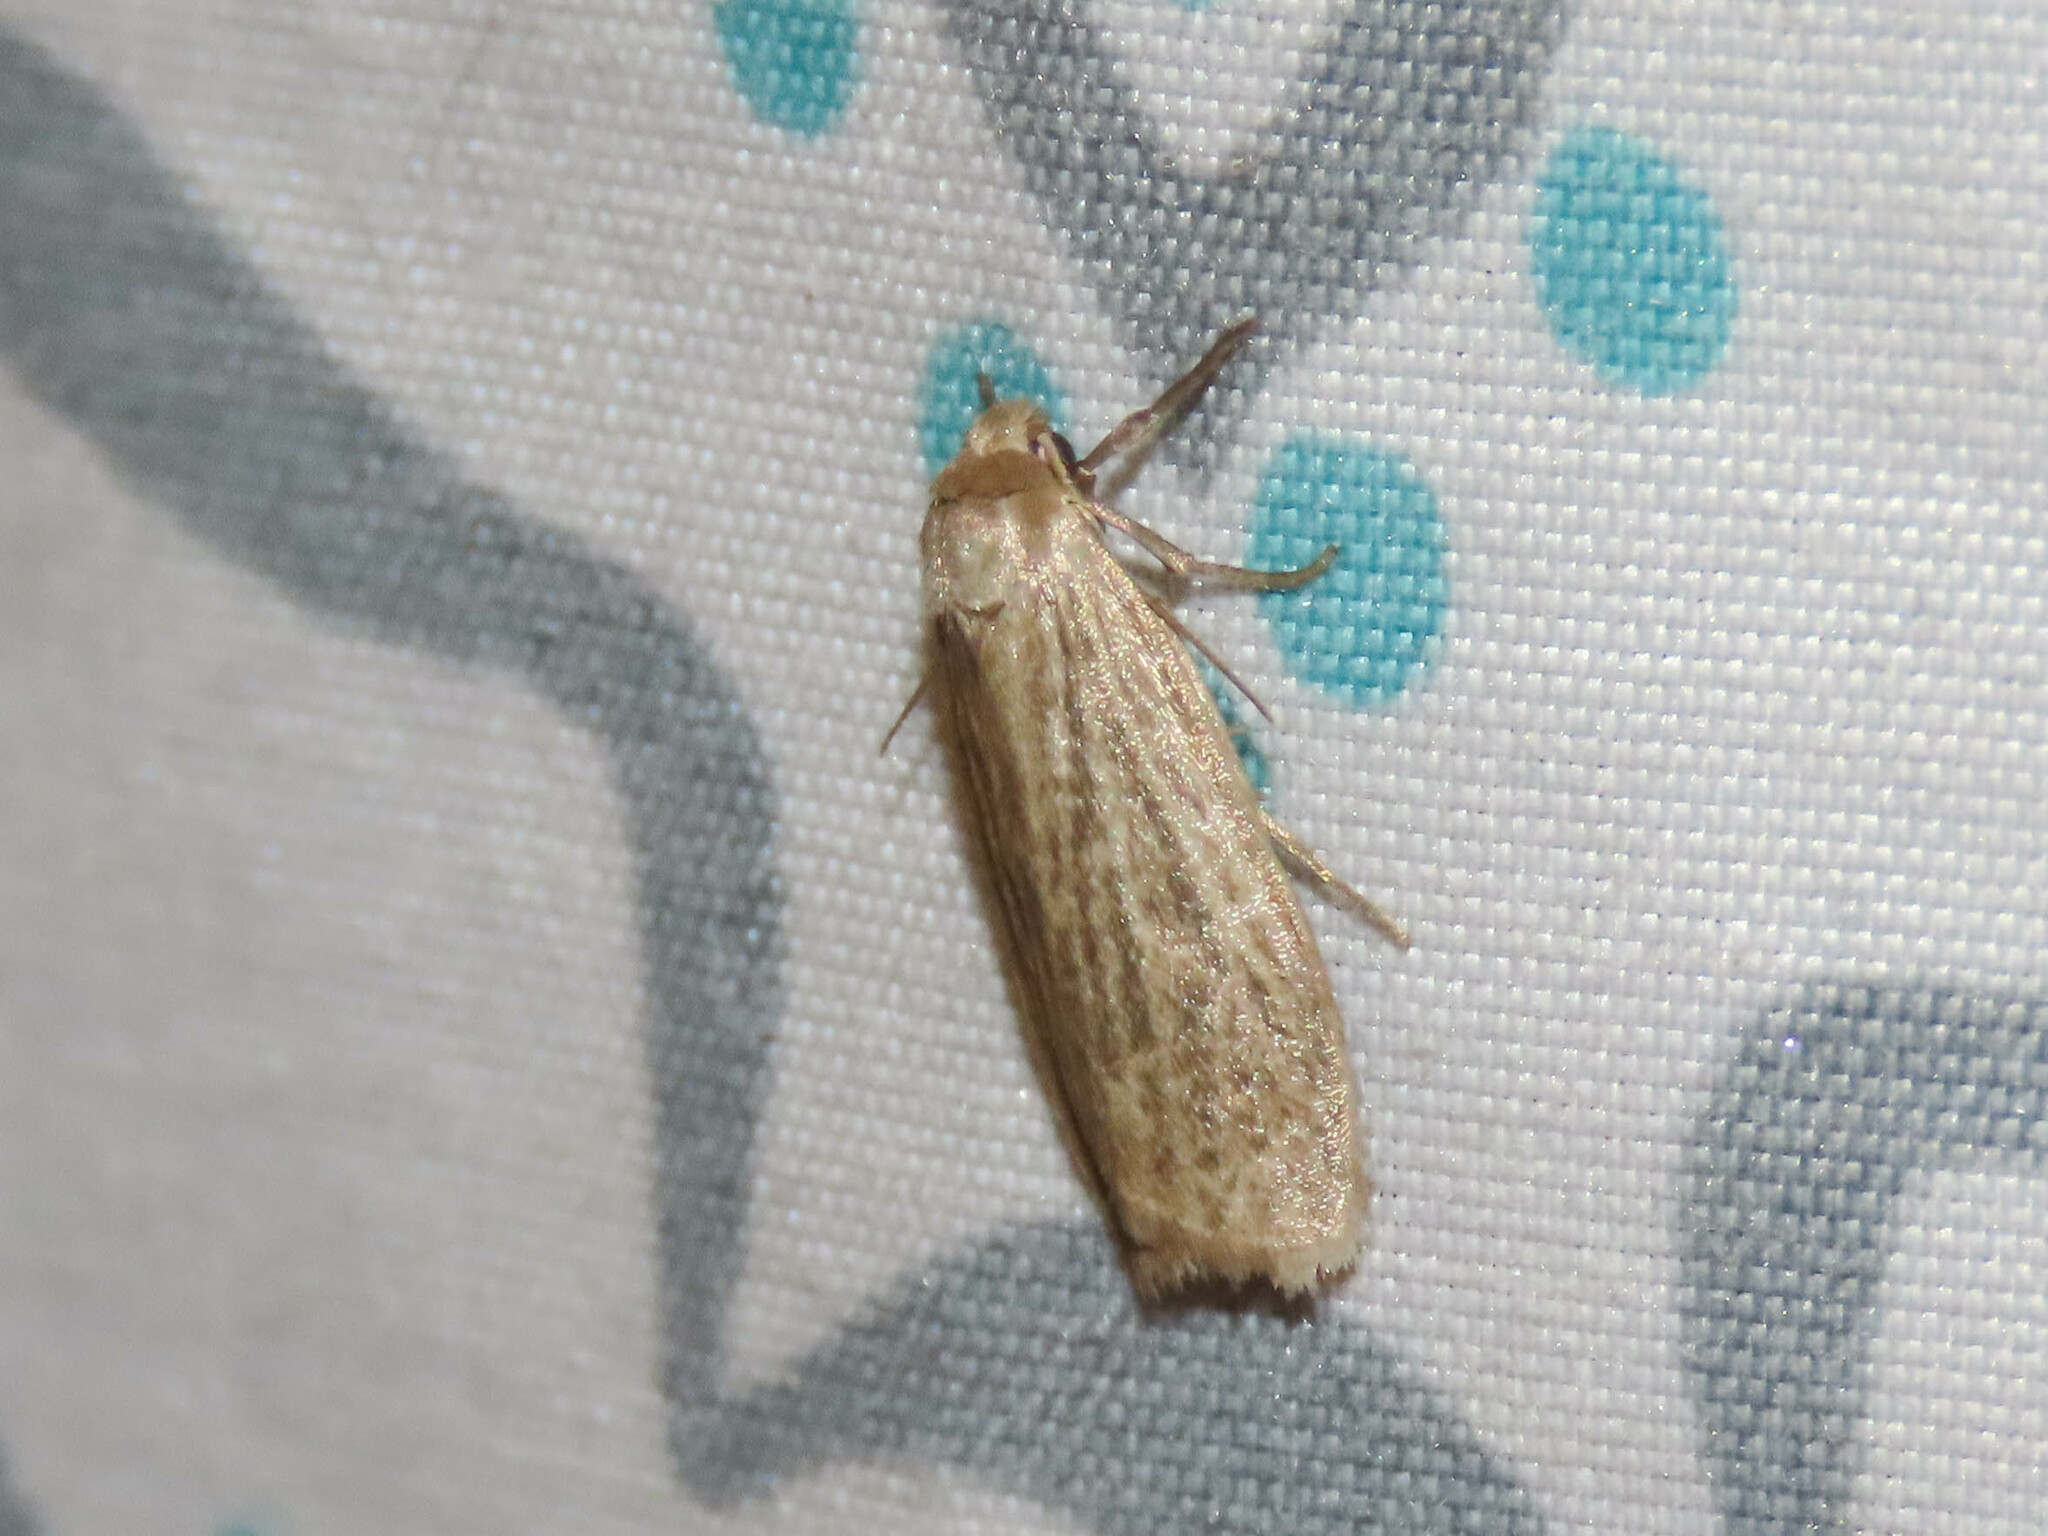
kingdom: Animalia
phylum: Arthropoda
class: Insecta
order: Lepidoptera
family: Erebidae
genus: Crambidia
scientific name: Crambidia pallida
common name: Pale lichen moth
